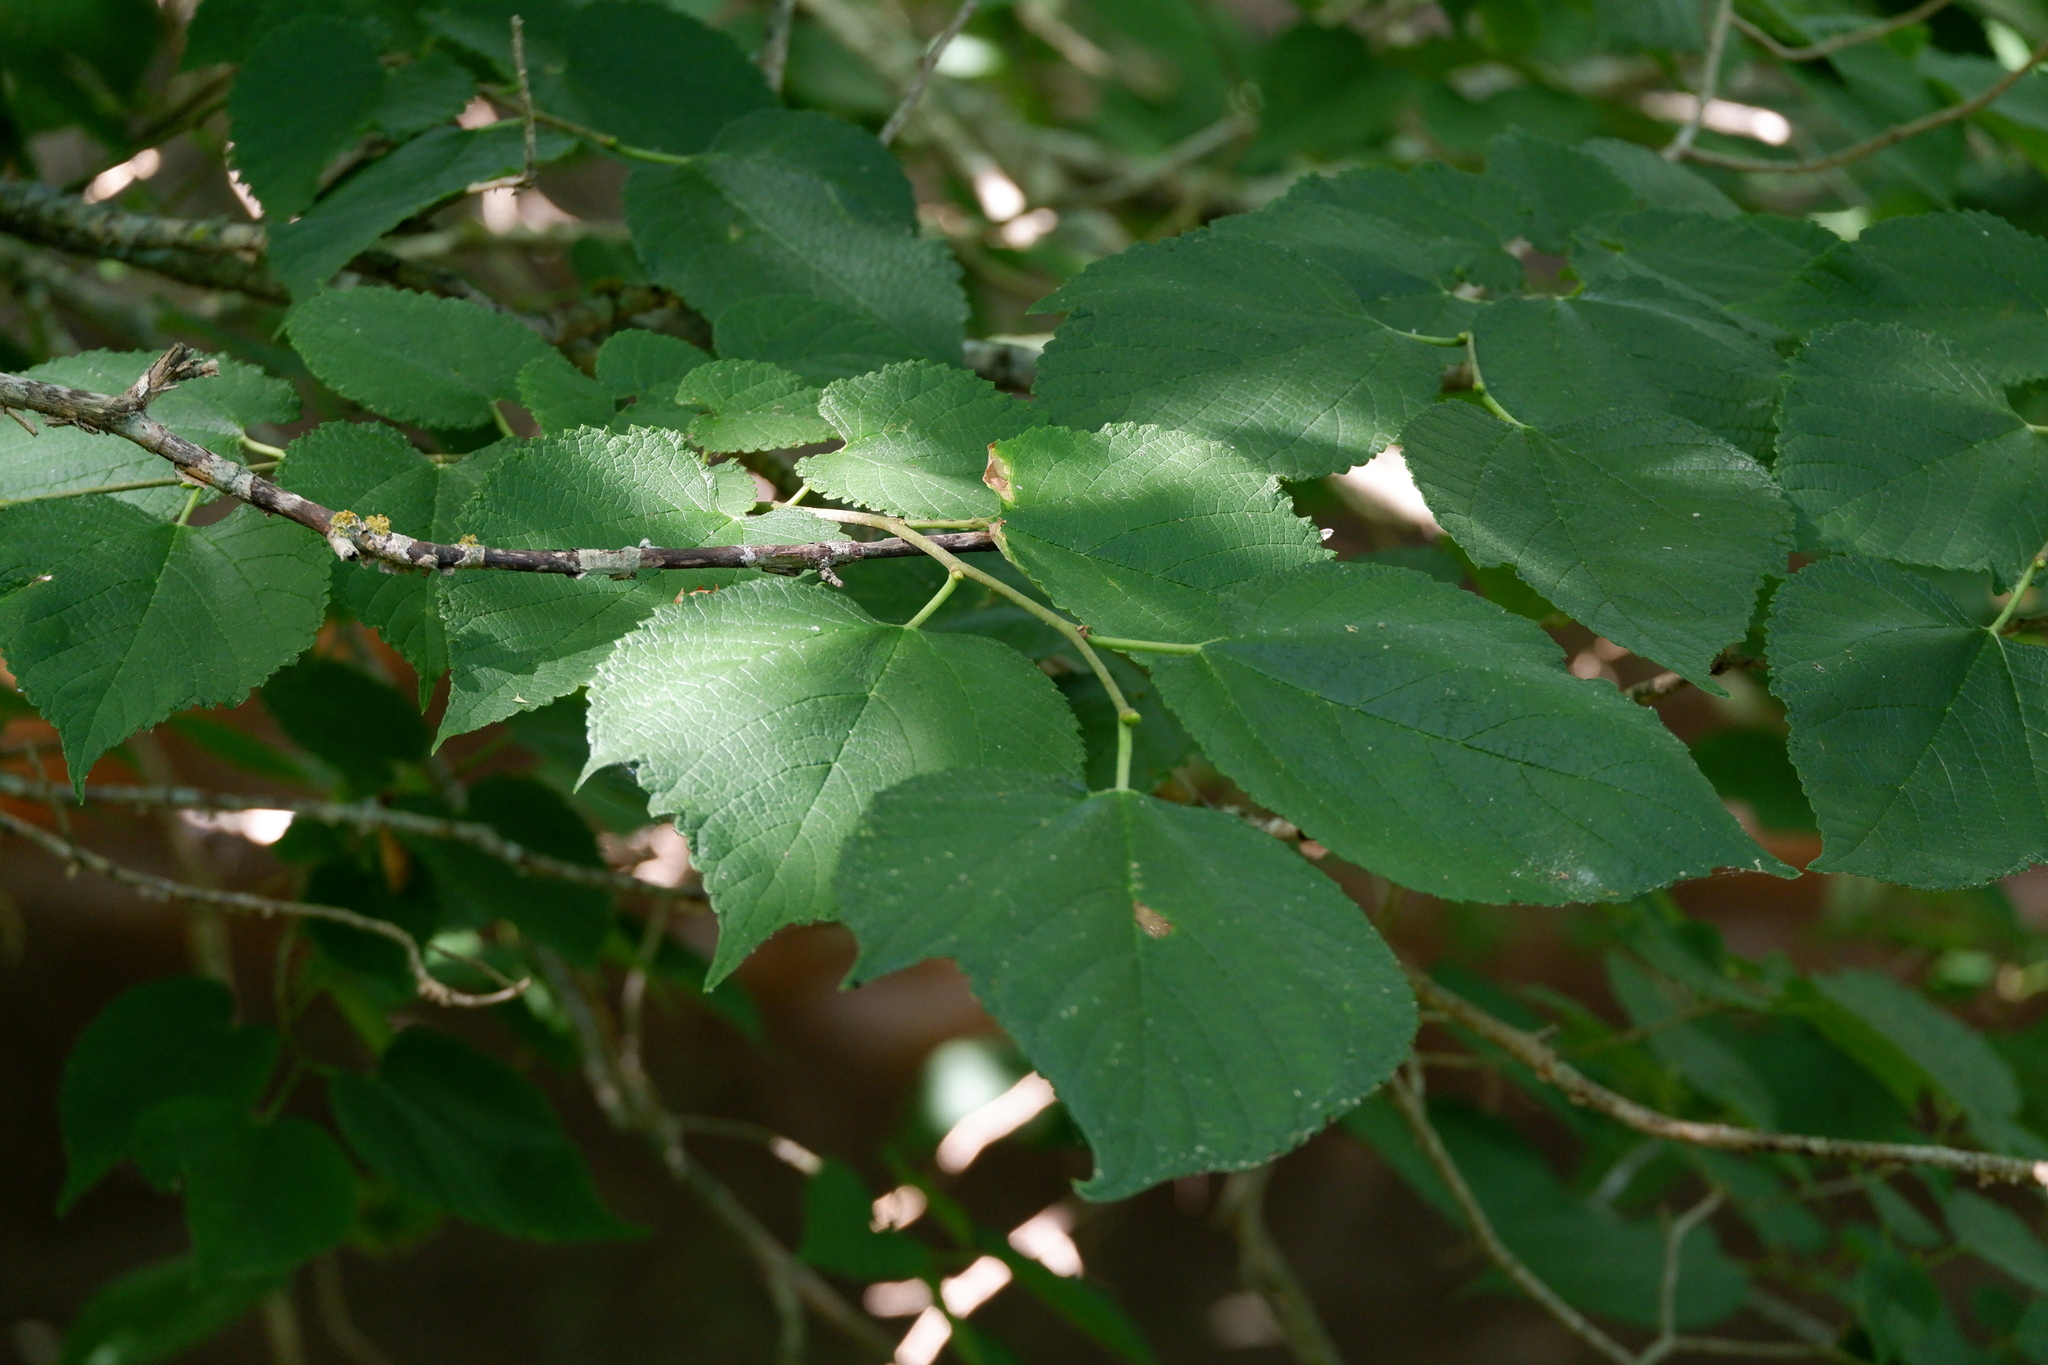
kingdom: Plantae
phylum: Tracheophyta
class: Magnoliopsida
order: Rosales
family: Moraceae
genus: Morus
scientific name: Morus rubra
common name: Red mulberry
